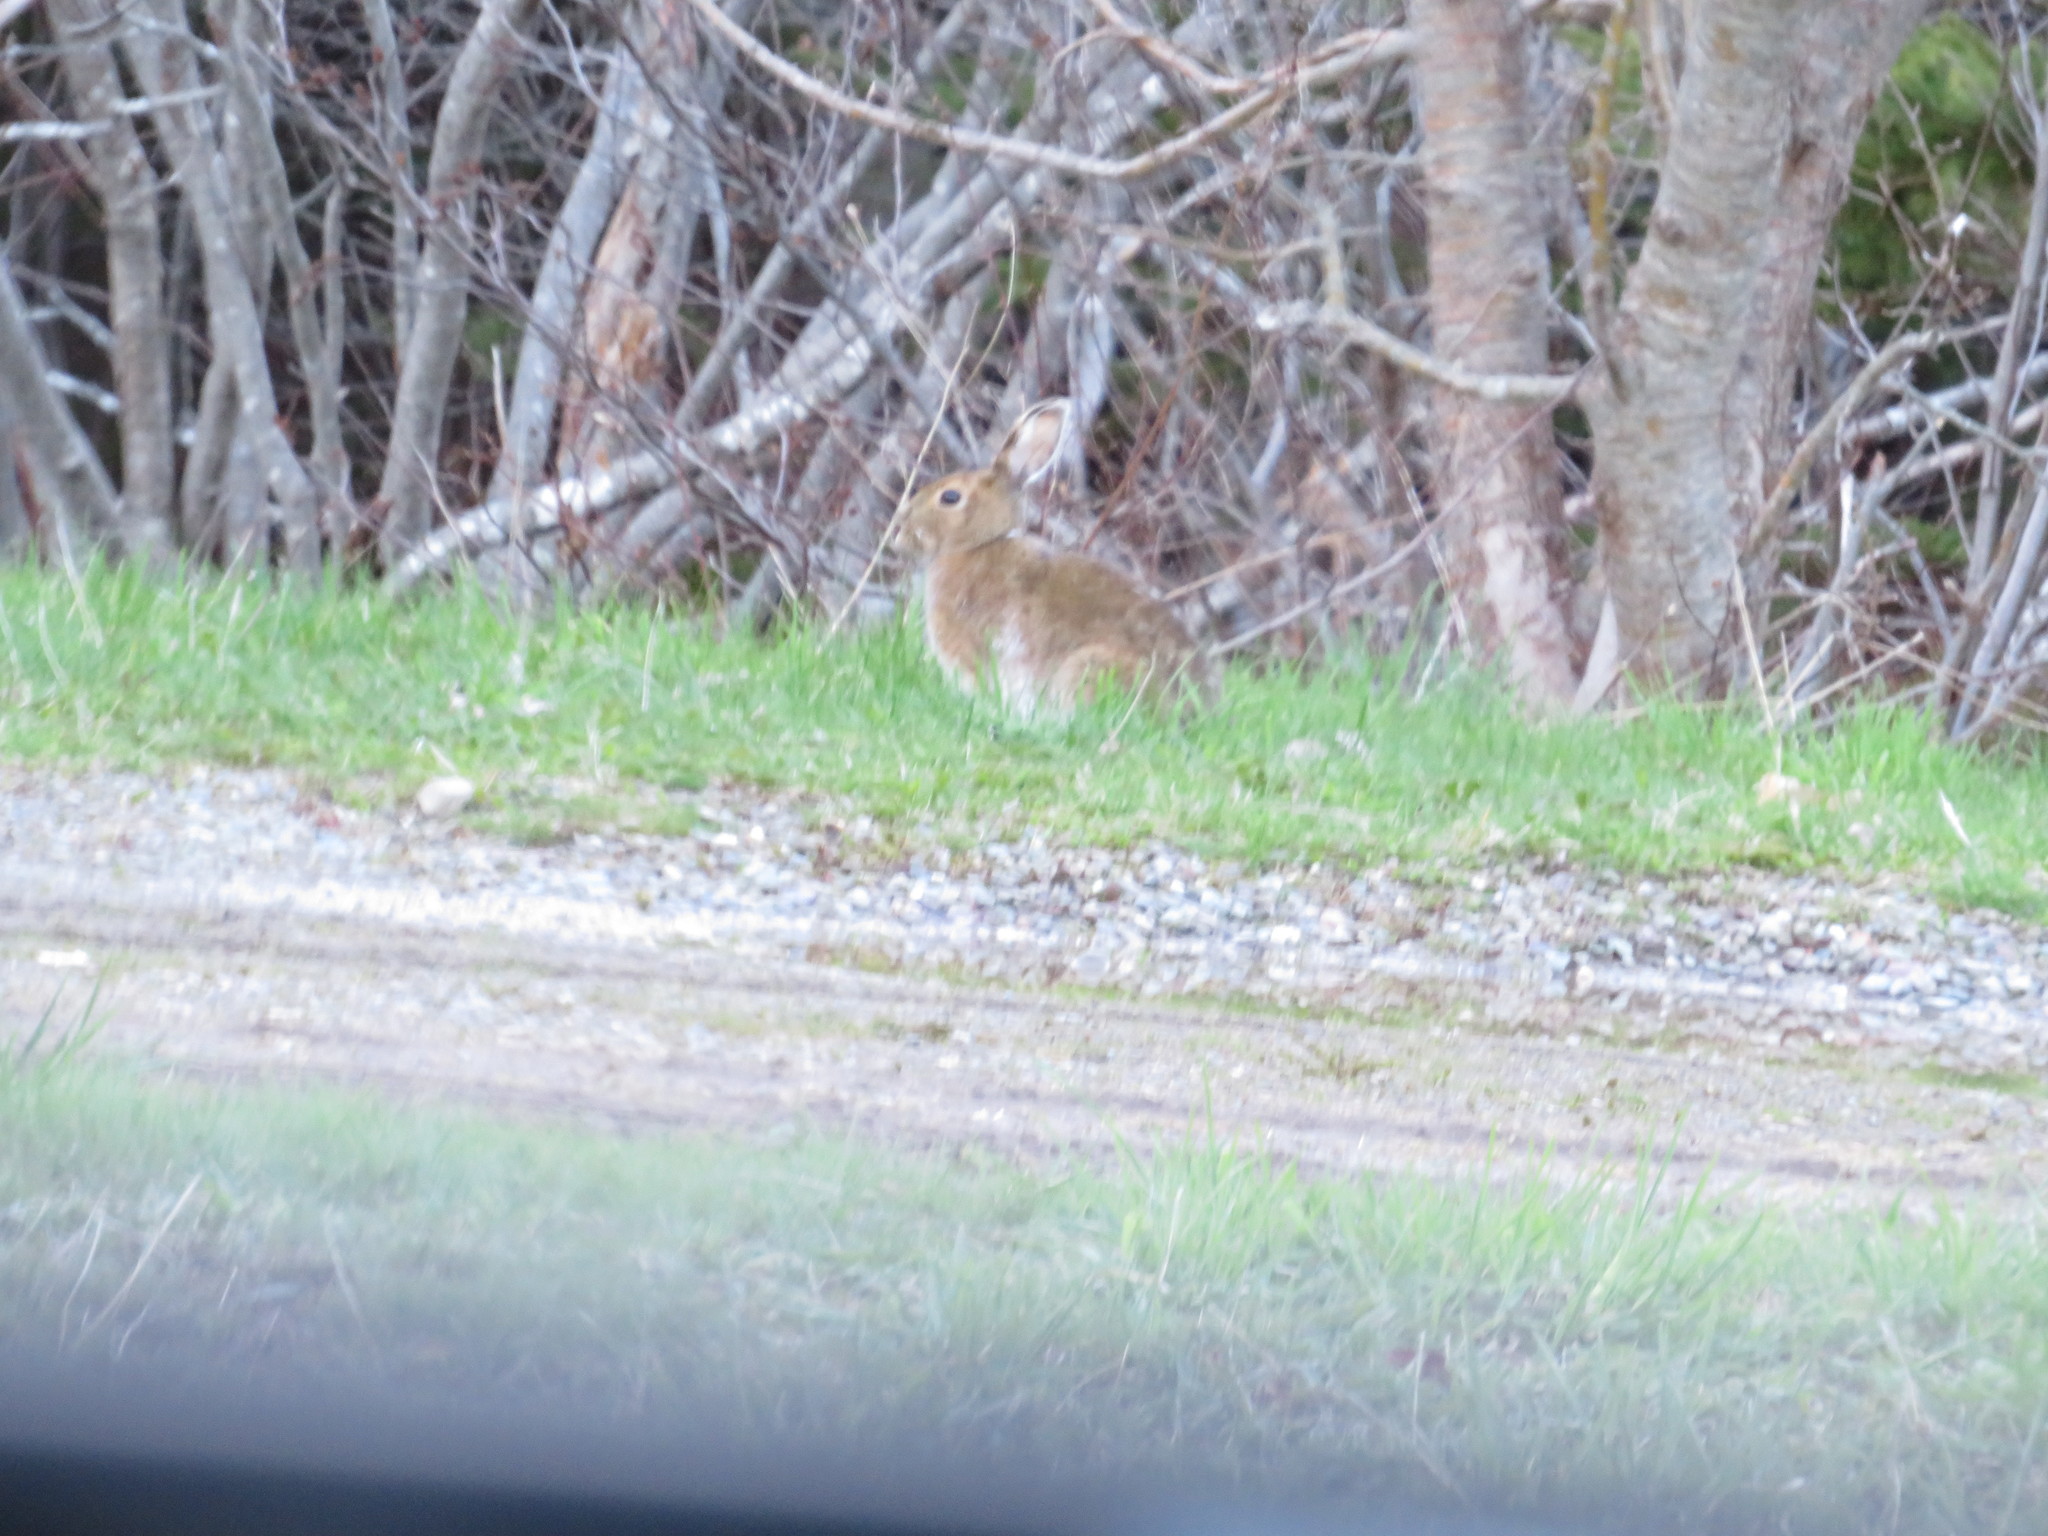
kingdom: Animalia
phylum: Chordata
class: Mammalia
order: Lagomorpha
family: Leporidae
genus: Lepus
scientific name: Lepus americanus
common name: Snowshoe hare
